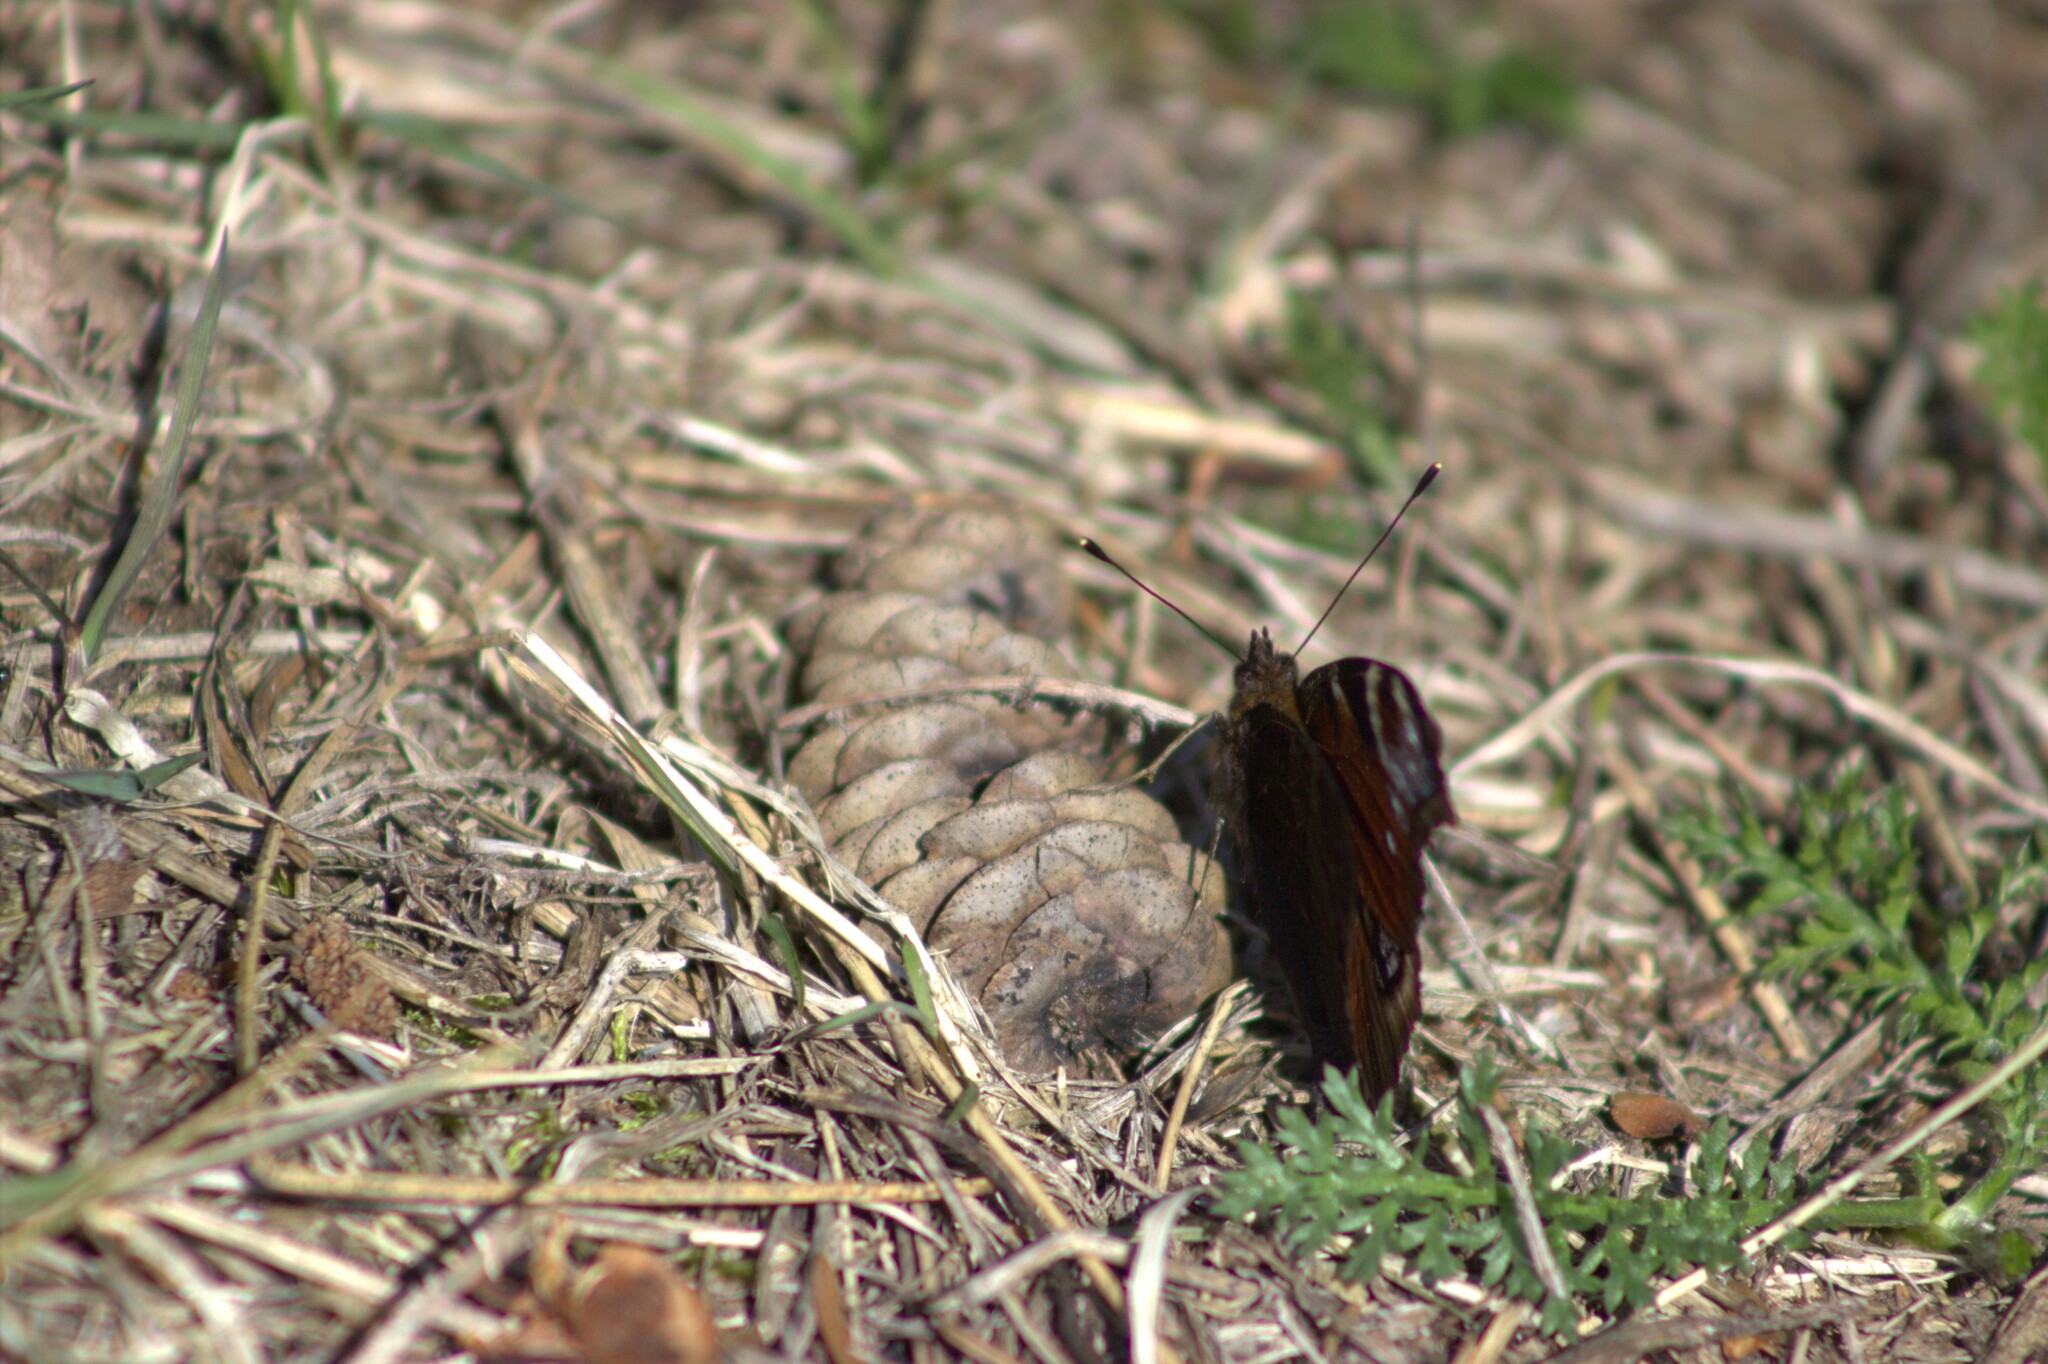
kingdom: Animalia
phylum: Arthropoda
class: Insecta
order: Lepidoptera
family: Nymphalidae
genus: Aglais
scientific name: Aglais io
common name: Peacock
